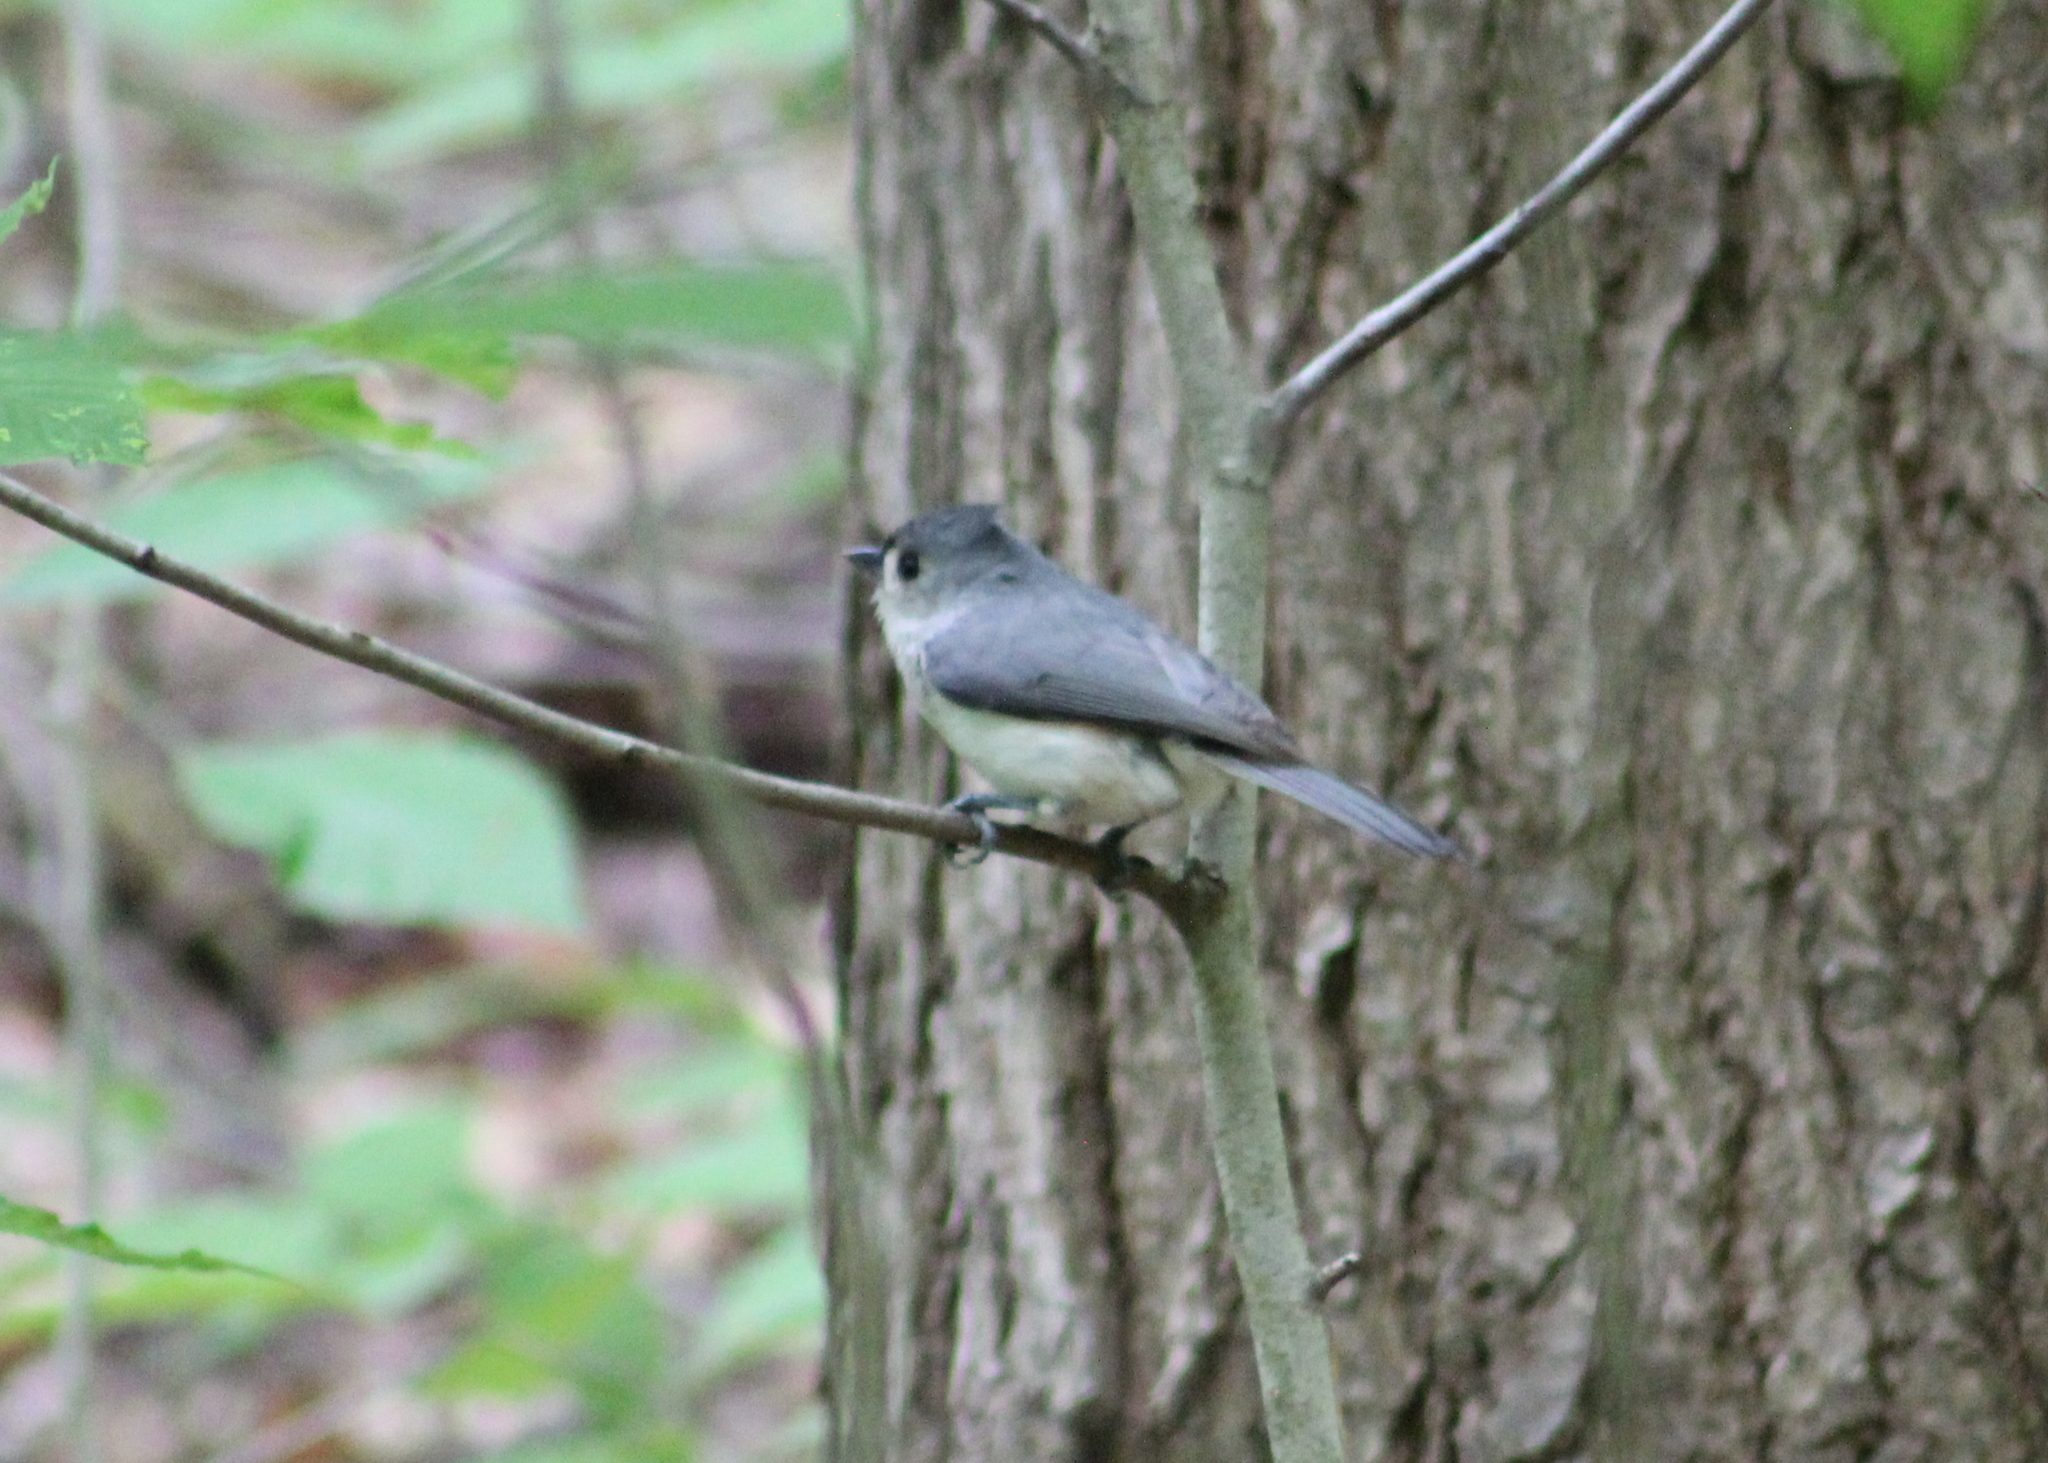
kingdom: Animalia
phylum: Chordata
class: Aves
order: Passeriformes
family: Paridae
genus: Baeolophus
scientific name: Baeolophus bicolor
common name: Tufted titmouse
